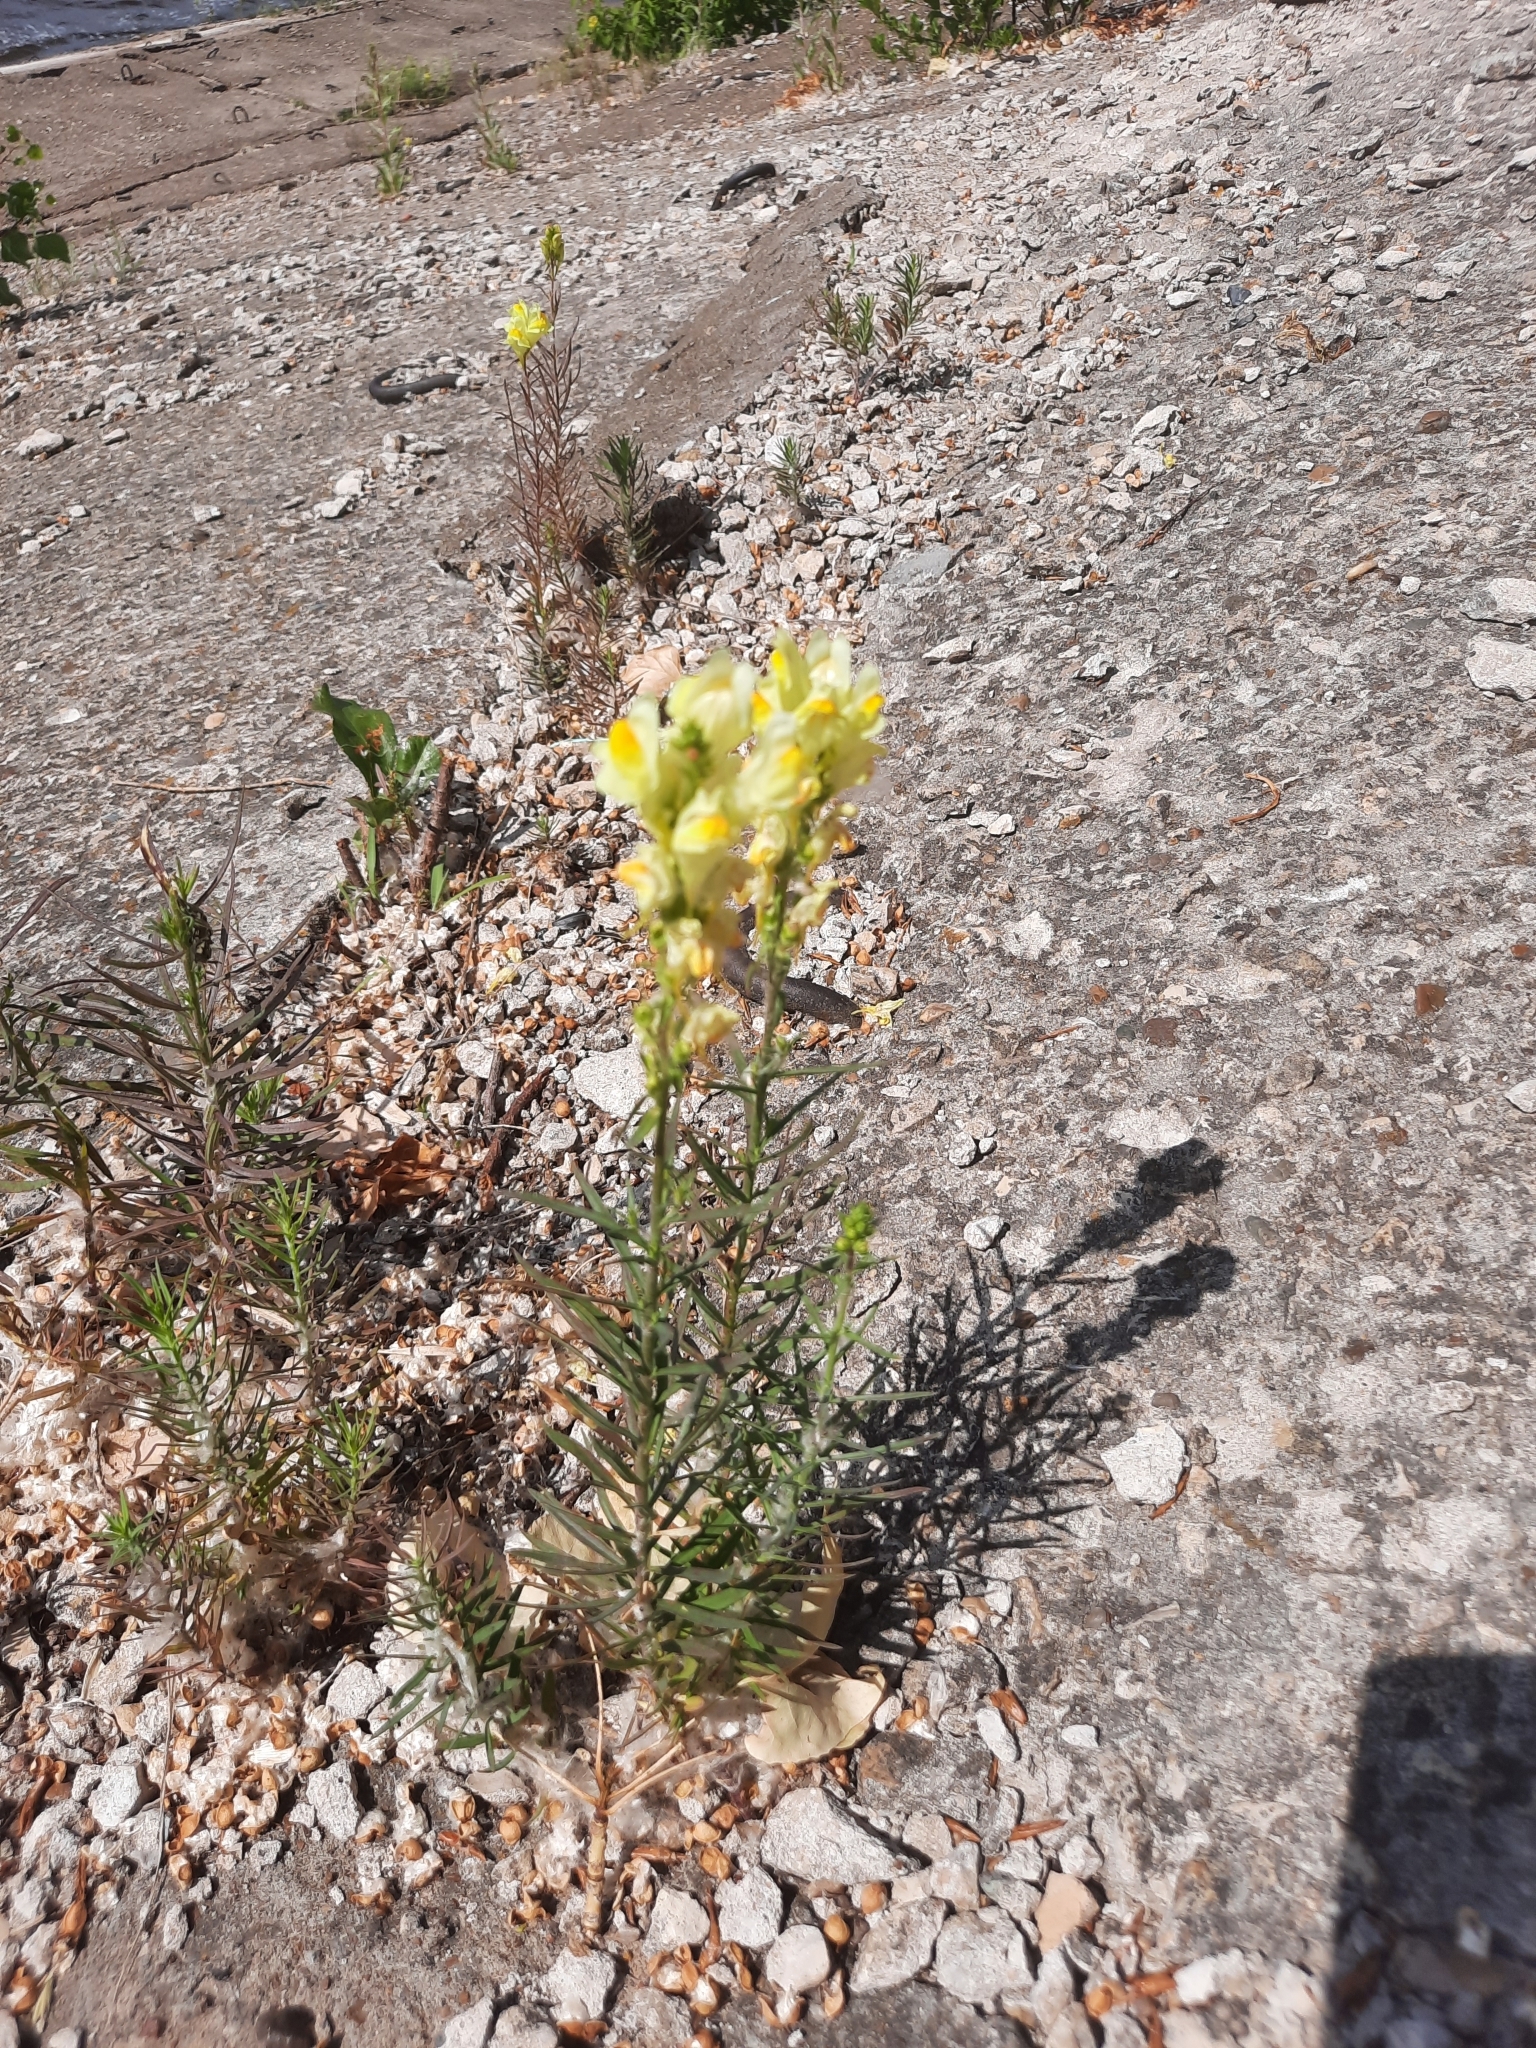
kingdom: Plantae
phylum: Tracheophyta
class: Magnoliopsida
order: Lamiales
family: Plantaginaceae
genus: Linaria
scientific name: Linaria vulgaris
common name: Butter and eggs
